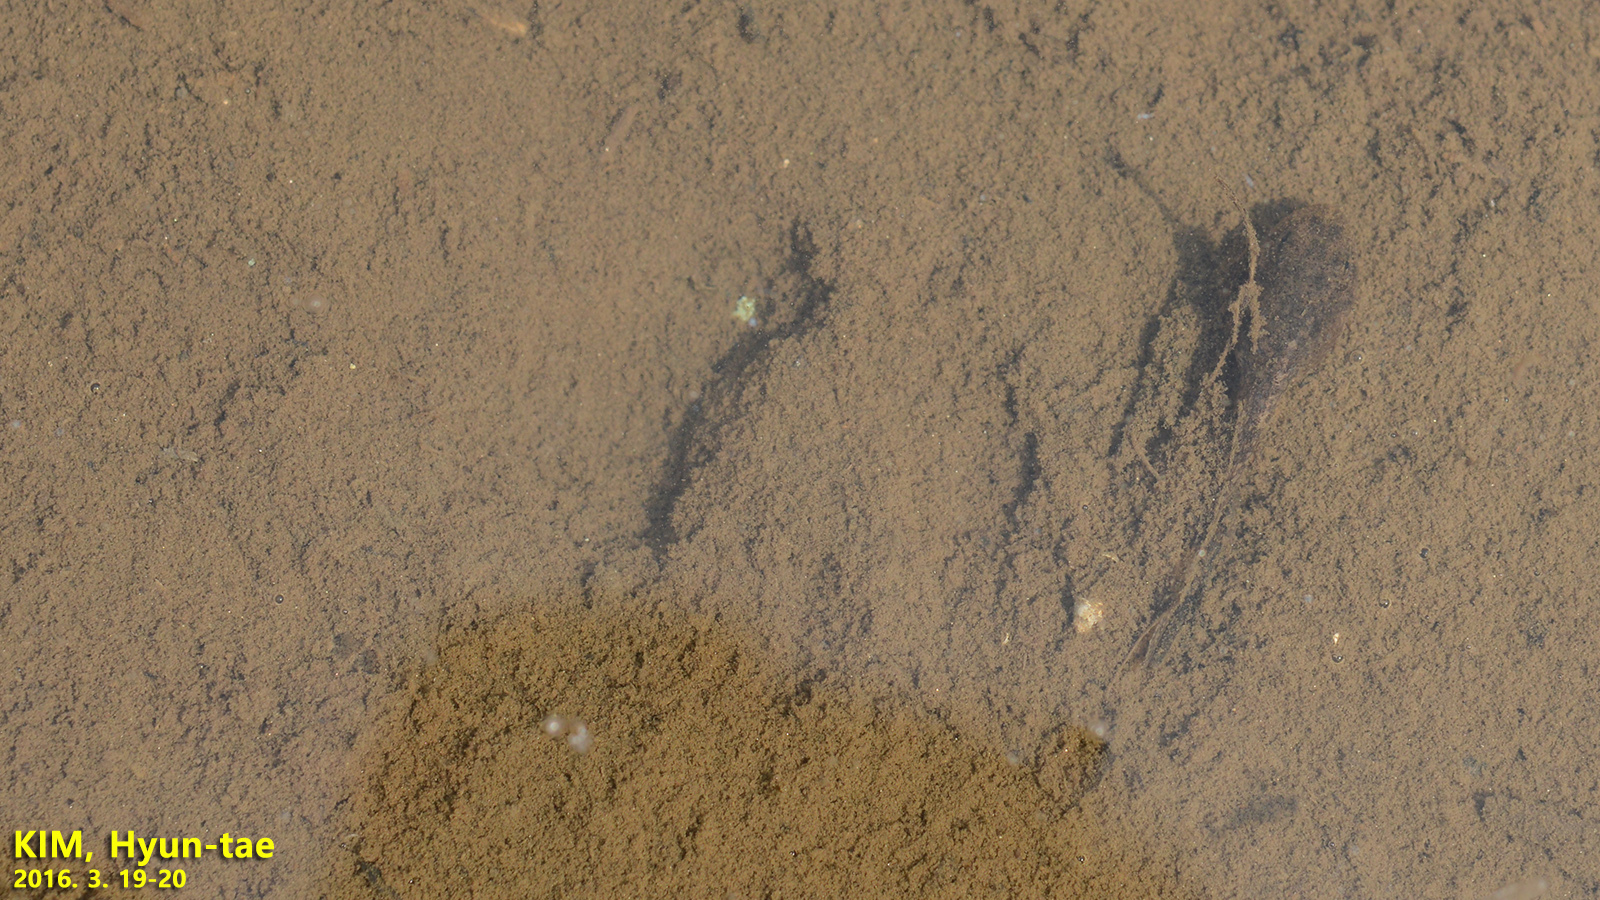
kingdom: Animalia
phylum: Chordata
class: Amphibia
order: Anura
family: Ranidae
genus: Glandirana
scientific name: Glandirana emeljanovi
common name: Northeast china rough-skinned frog
